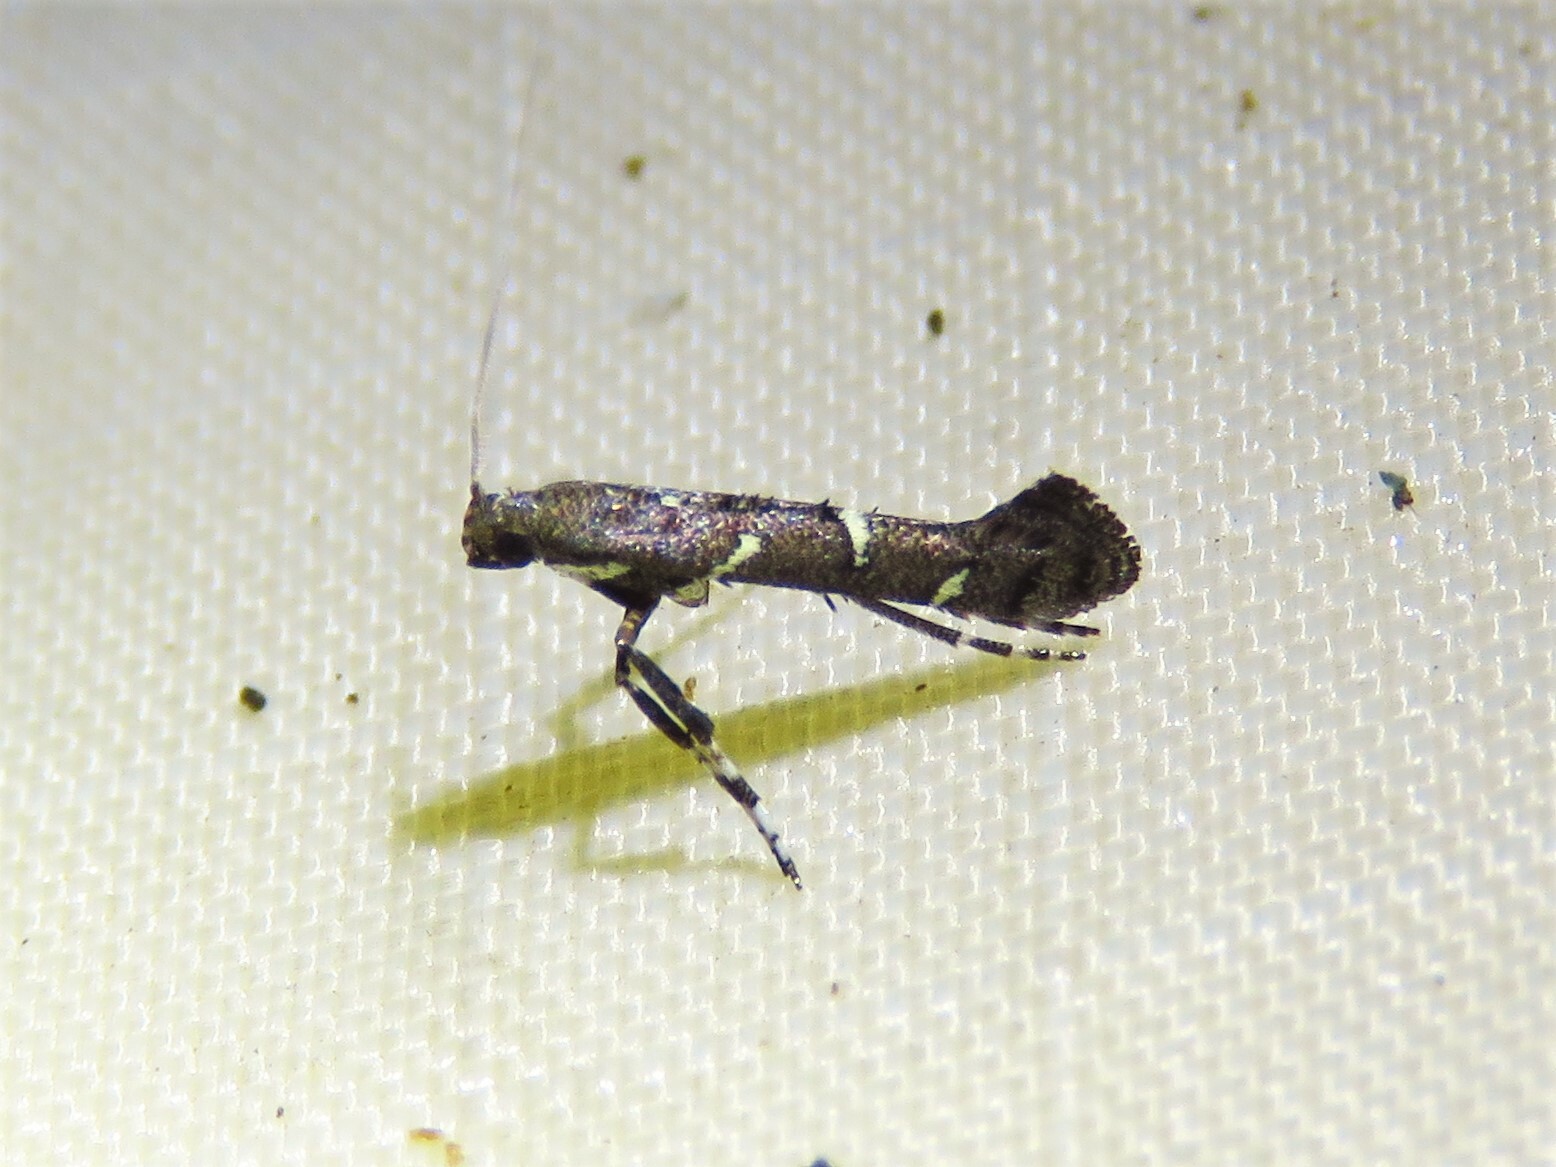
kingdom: Animalia
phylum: Arthropoda
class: Insecta
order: Lepidoptera
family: Gracillariidae
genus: Caloptilia
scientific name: Caloptilia triadicae
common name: Tallow leaf roller
